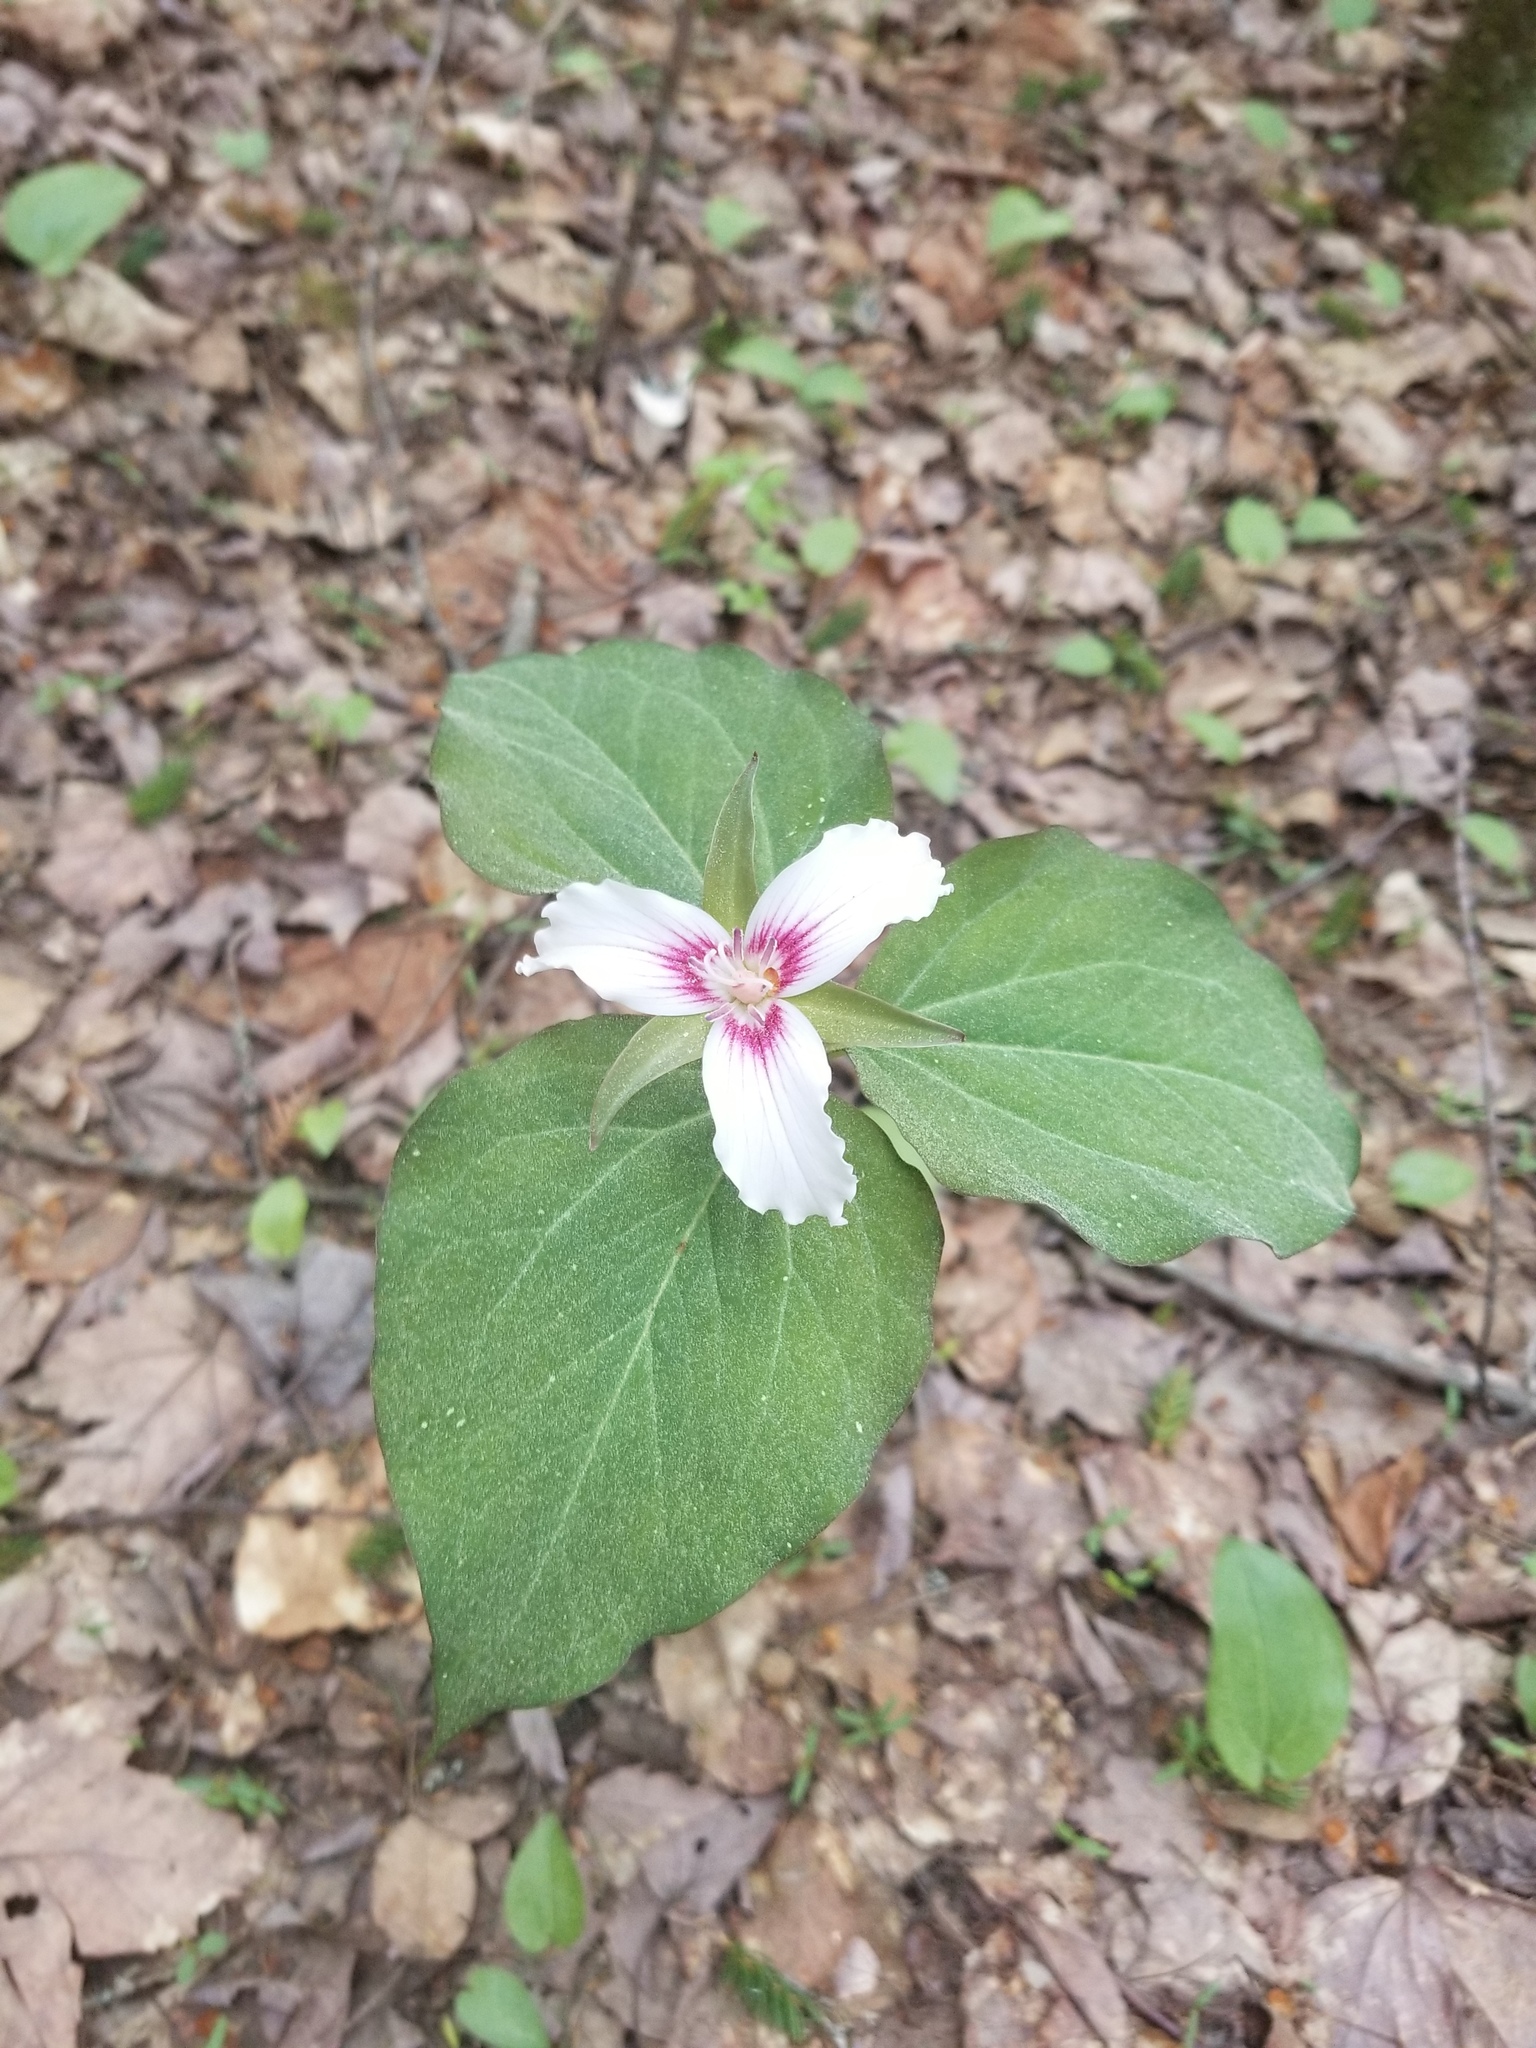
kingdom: Plantae
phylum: Tracheophyta
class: Liliopsida
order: Liliales
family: Melanthiaceae
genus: Trillium
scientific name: Trillium undulatum
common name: Paint trillium
